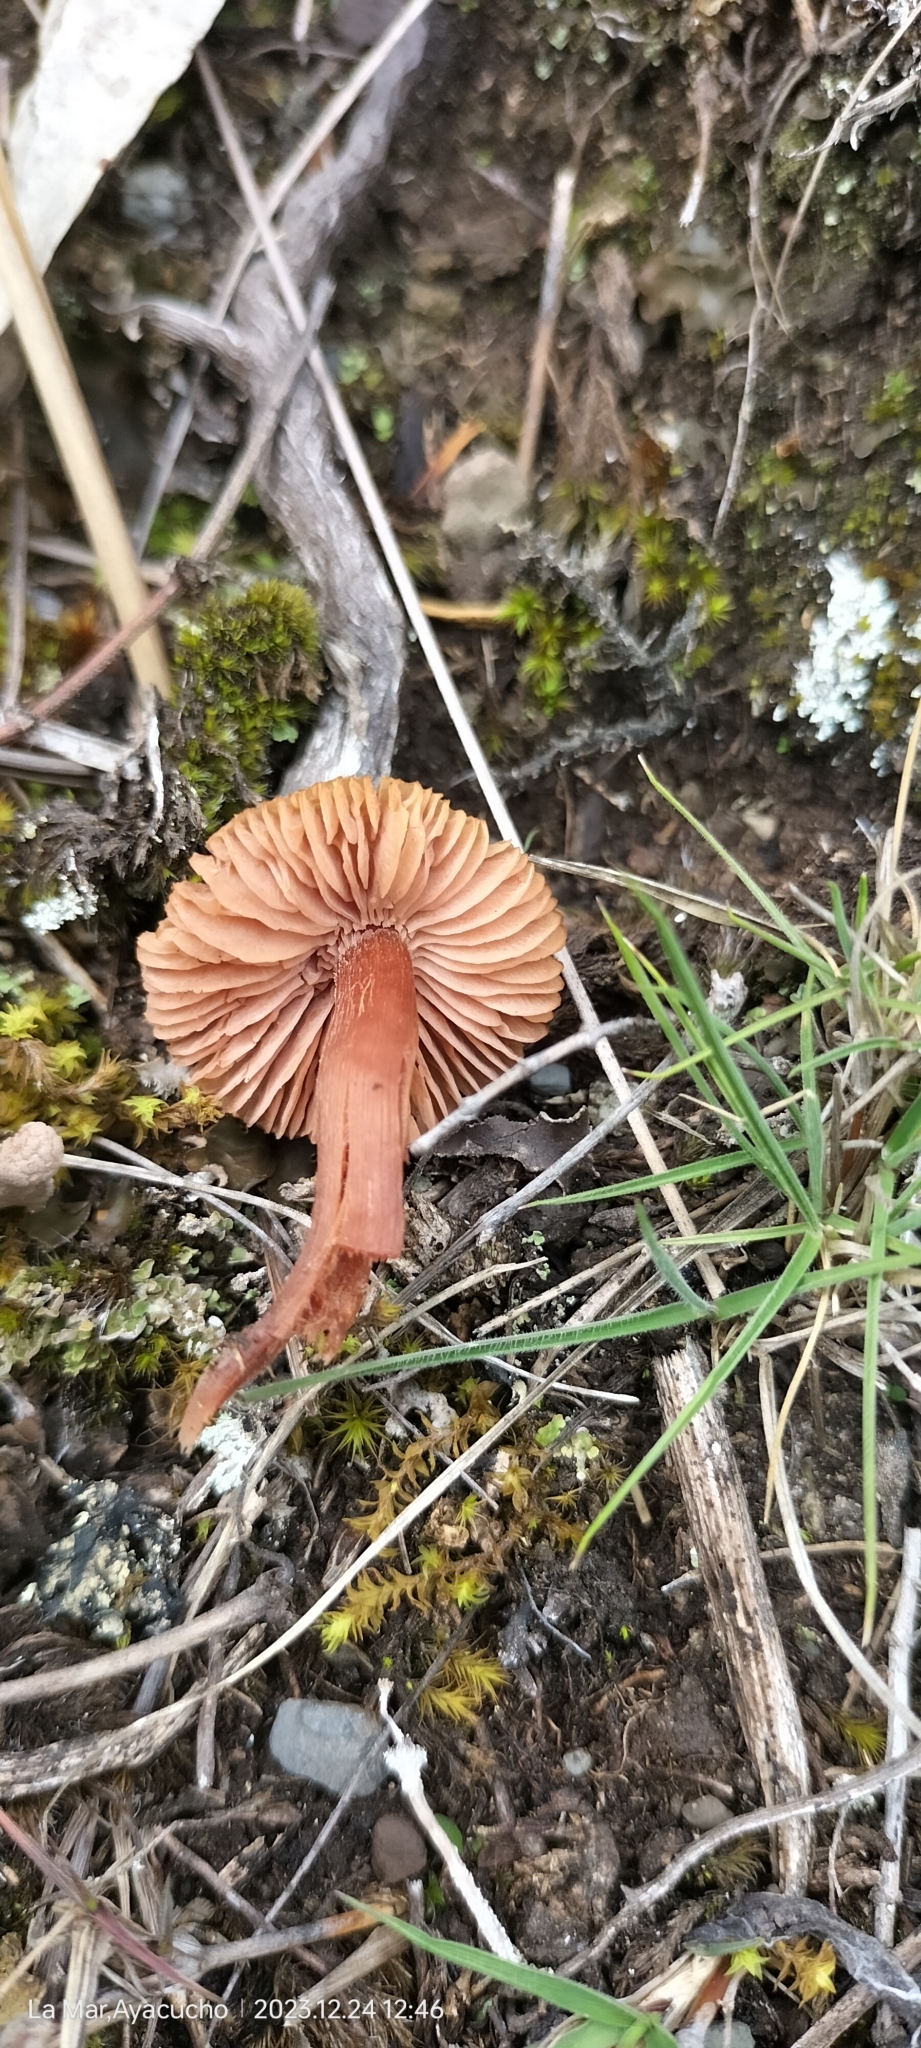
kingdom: Fungi
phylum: Basidiomycota
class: Agaricomycetes
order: Agaricales
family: Hydnangiaceae
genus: Laccaria
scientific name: Laccaria laccata
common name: Deceiver
